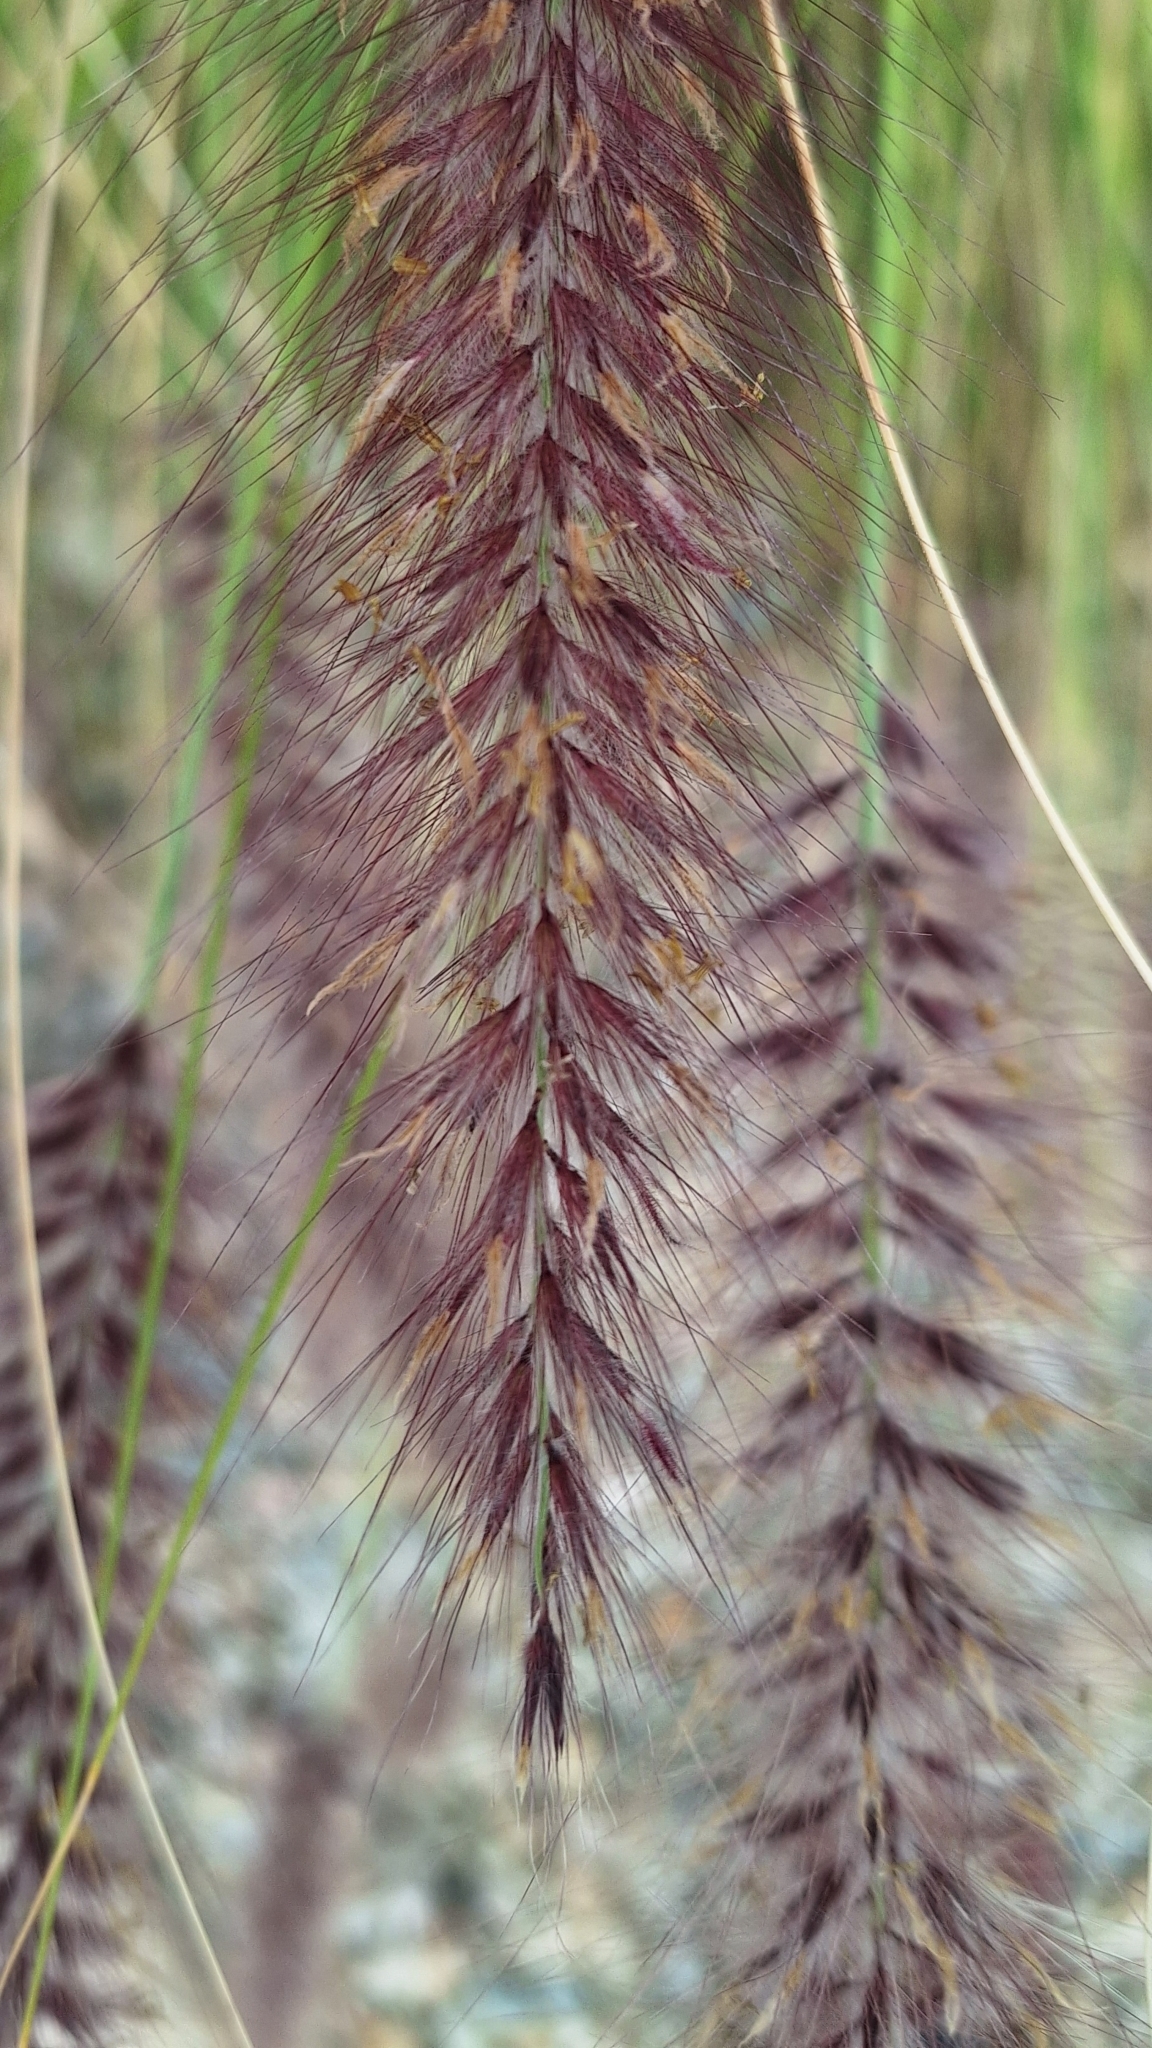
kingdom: Plantae
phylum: Tracheophyta
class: Liliopsida
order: Poales
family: Poaceae
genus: Cenchrus
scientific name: Cenchrus setaceus
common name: Crimson fountaingrass
